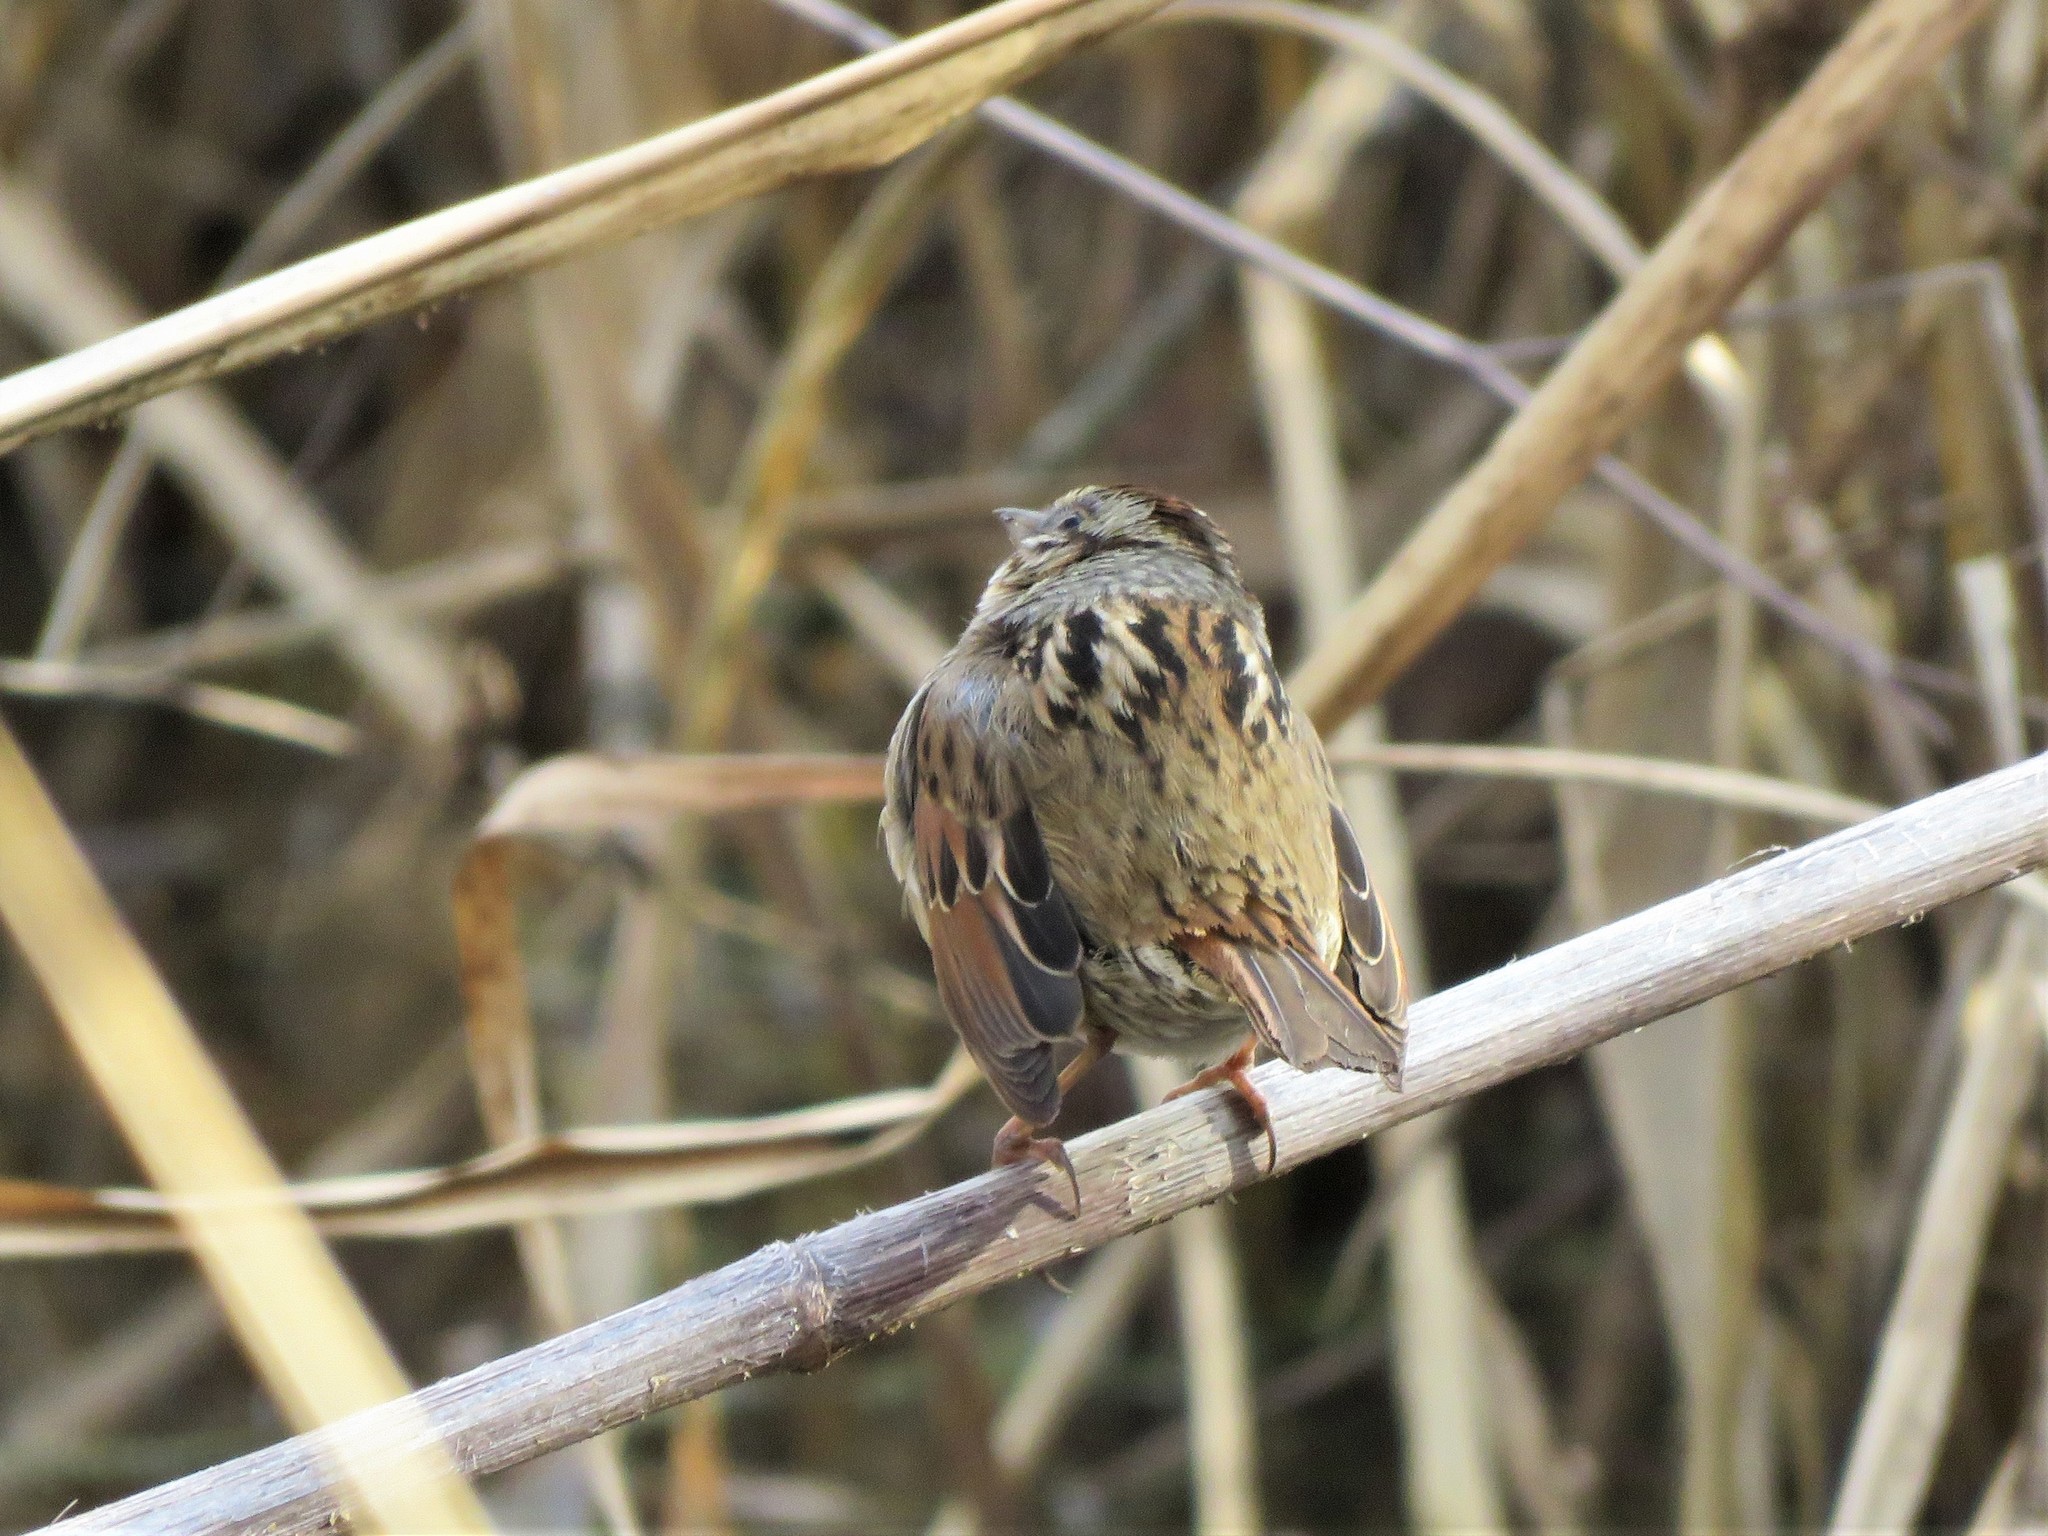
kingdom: Animalia
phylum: Chordata
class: Aves
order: Passeriformes
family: Passerellidae
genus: Melospiza
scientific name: Melospiza georgiana
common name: Swamp sparrow
